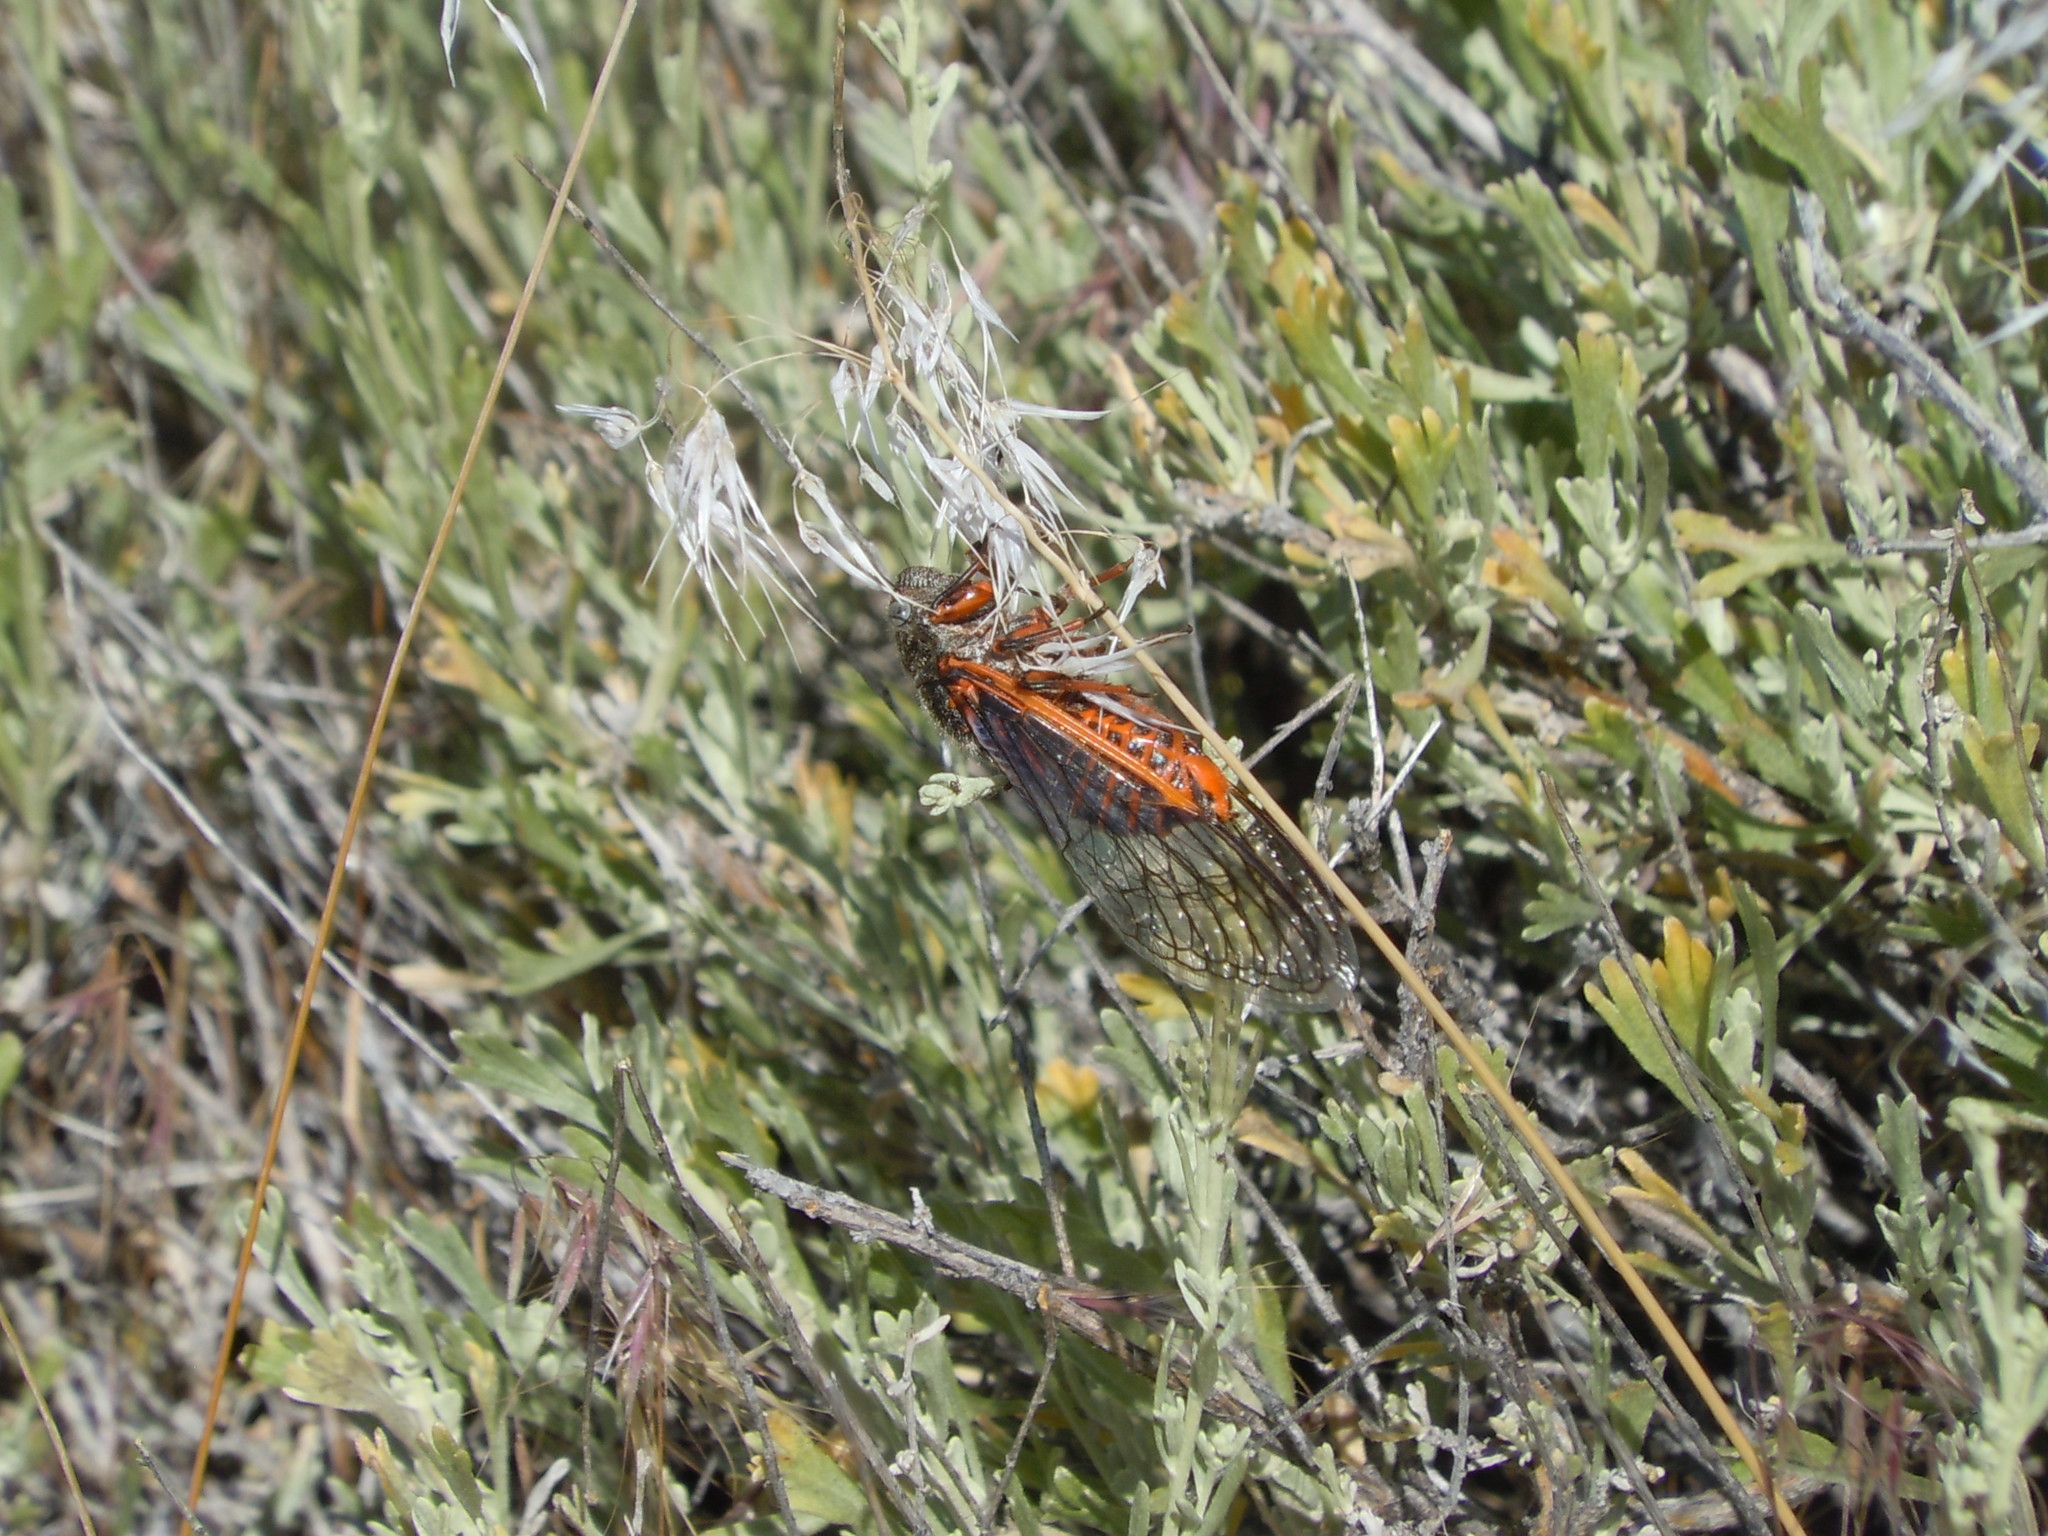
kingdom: Animalia
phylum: Arthropoda
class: Insecta
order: Hemiptera
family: Cicadidae
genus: Okanagana
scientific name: Okanagana magnifica
